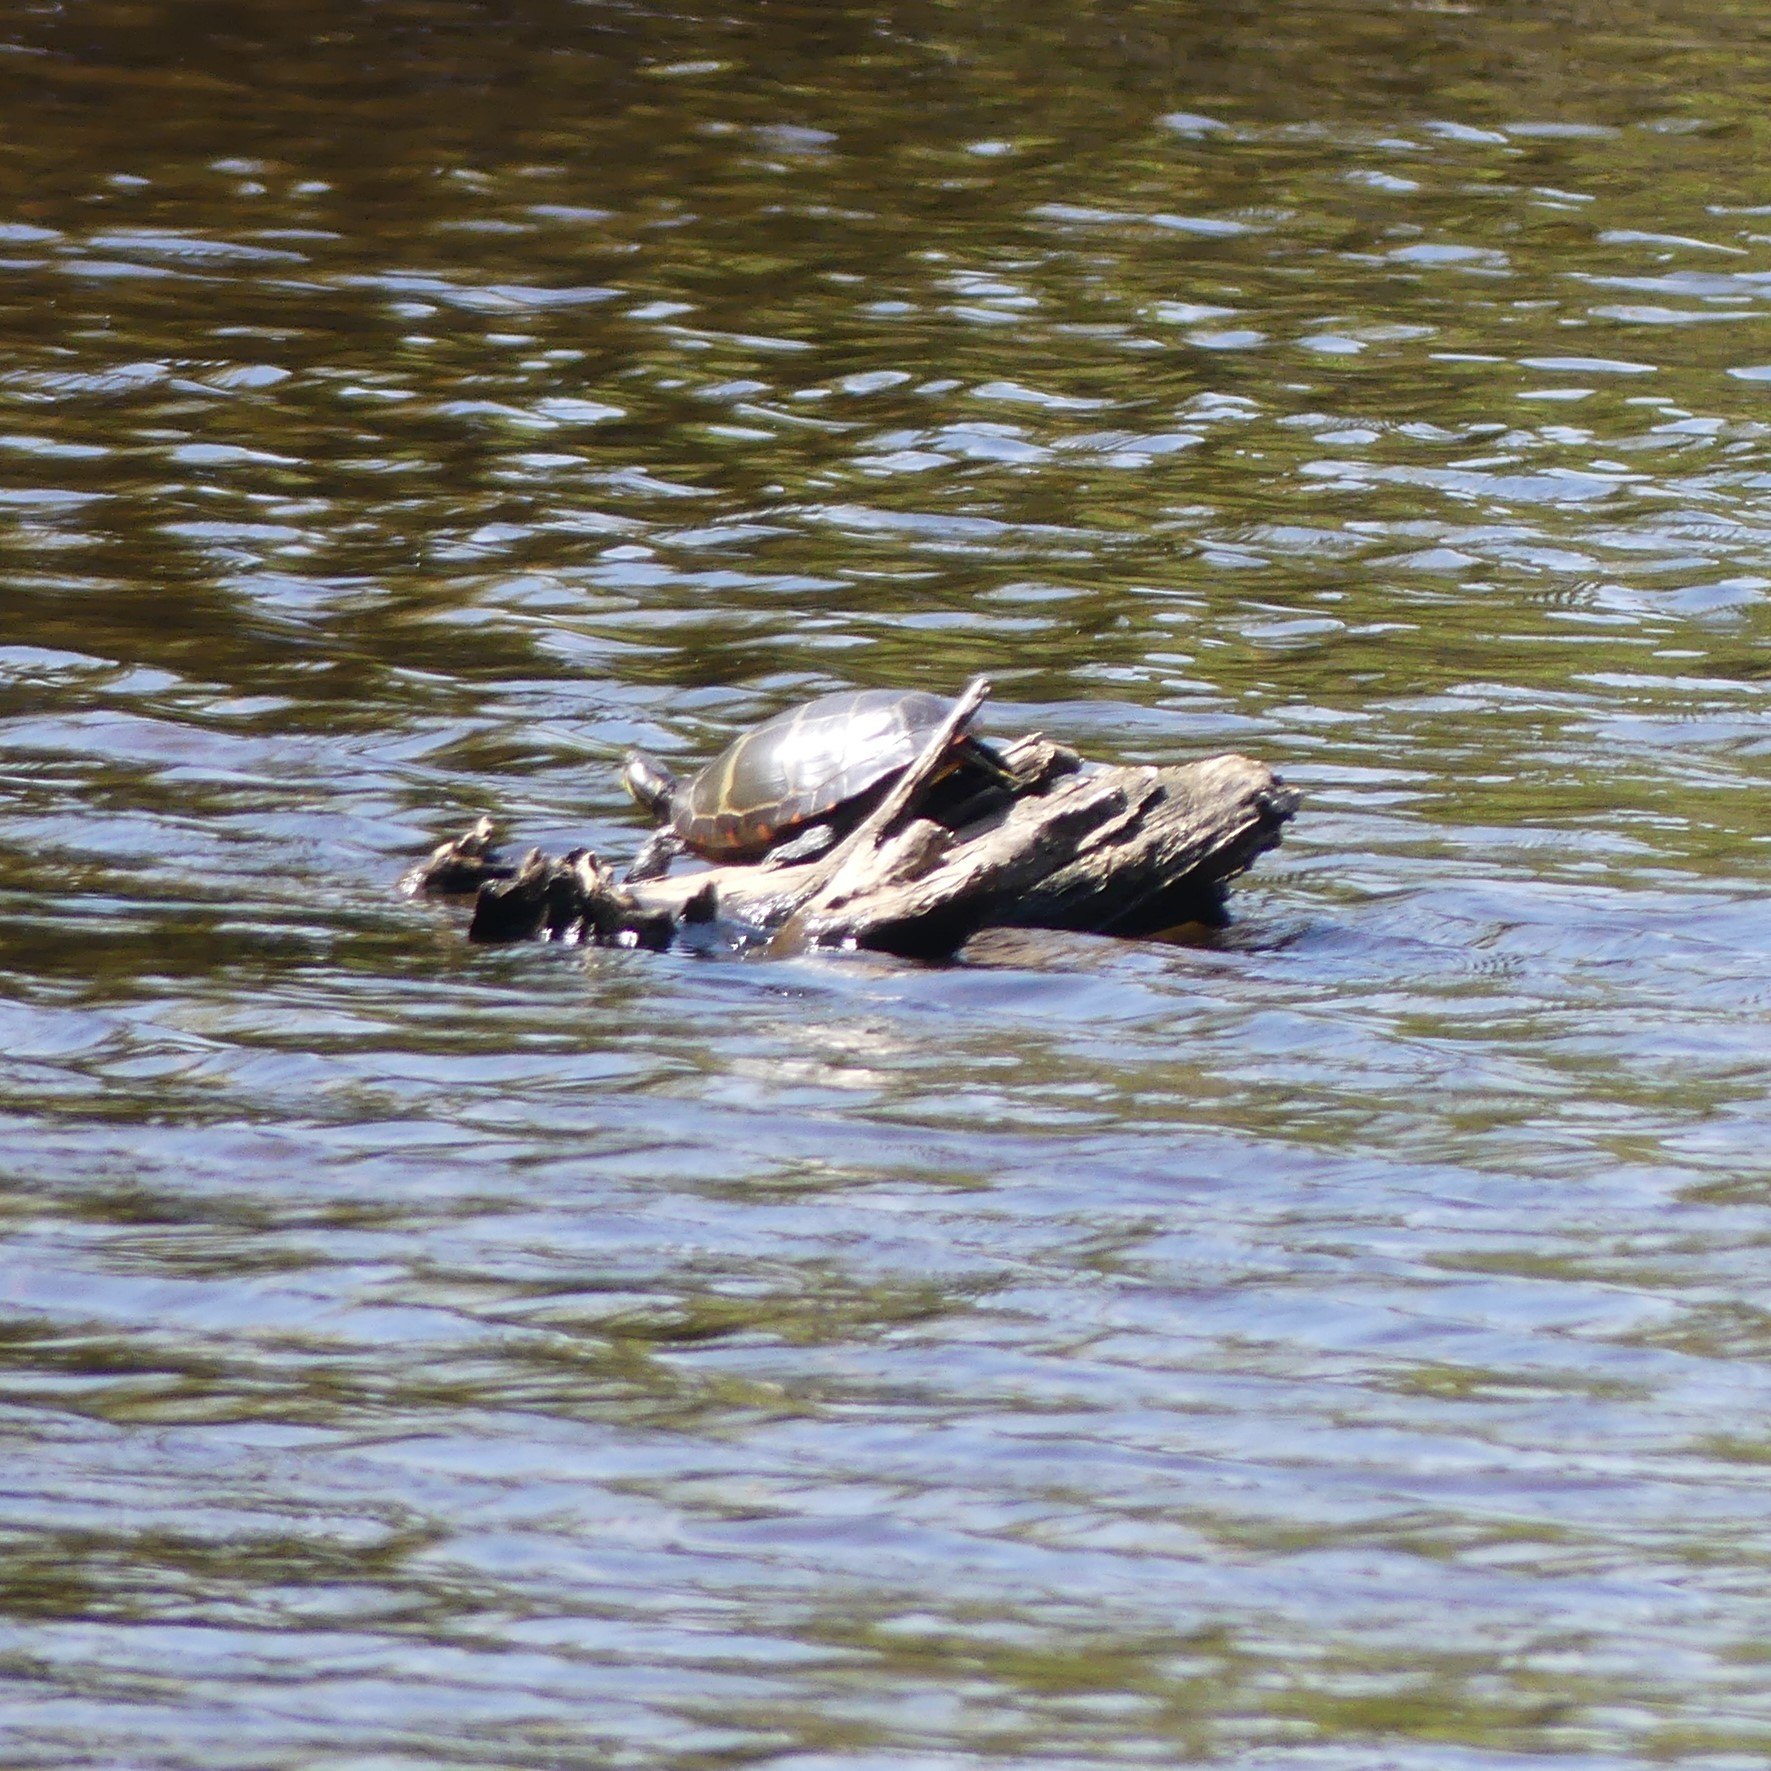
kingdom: Animalia
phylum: Chordata
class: Testudines
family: Emydidae
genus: Chrysemys
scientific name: Chrysemys picta
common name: Painted turtle
